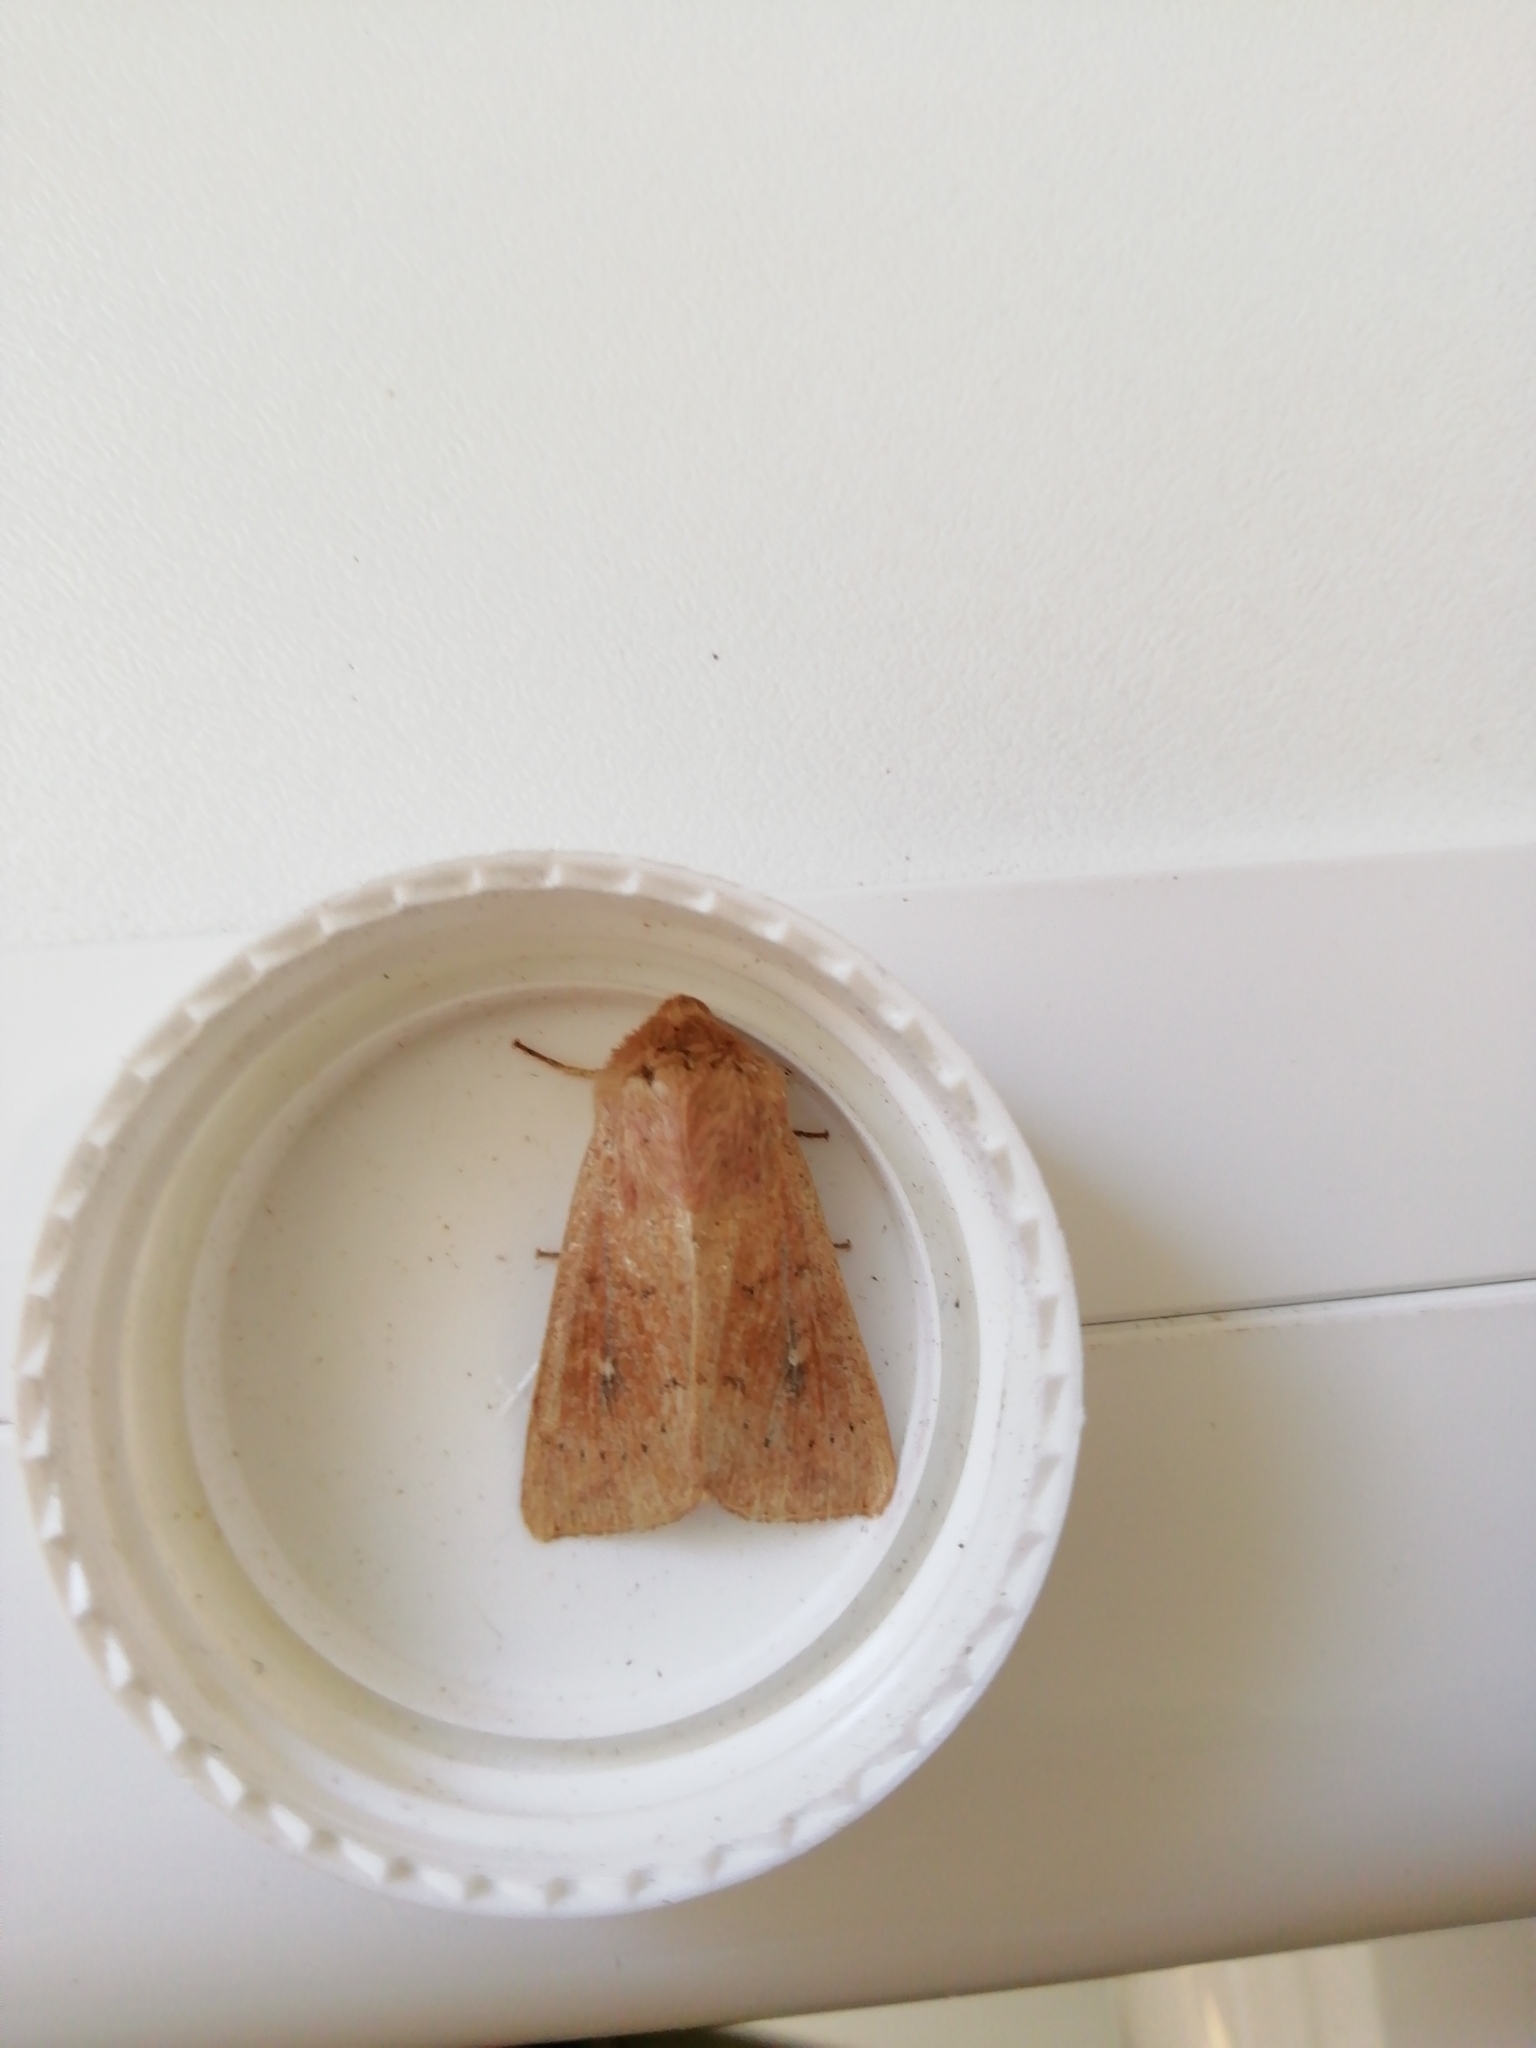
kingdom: Animalia
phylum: Arthropoda
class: Insecta
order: Lepidoptera
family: Noctuidae
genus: Mythimna
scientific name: Mythimna ferrago
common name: Clay
